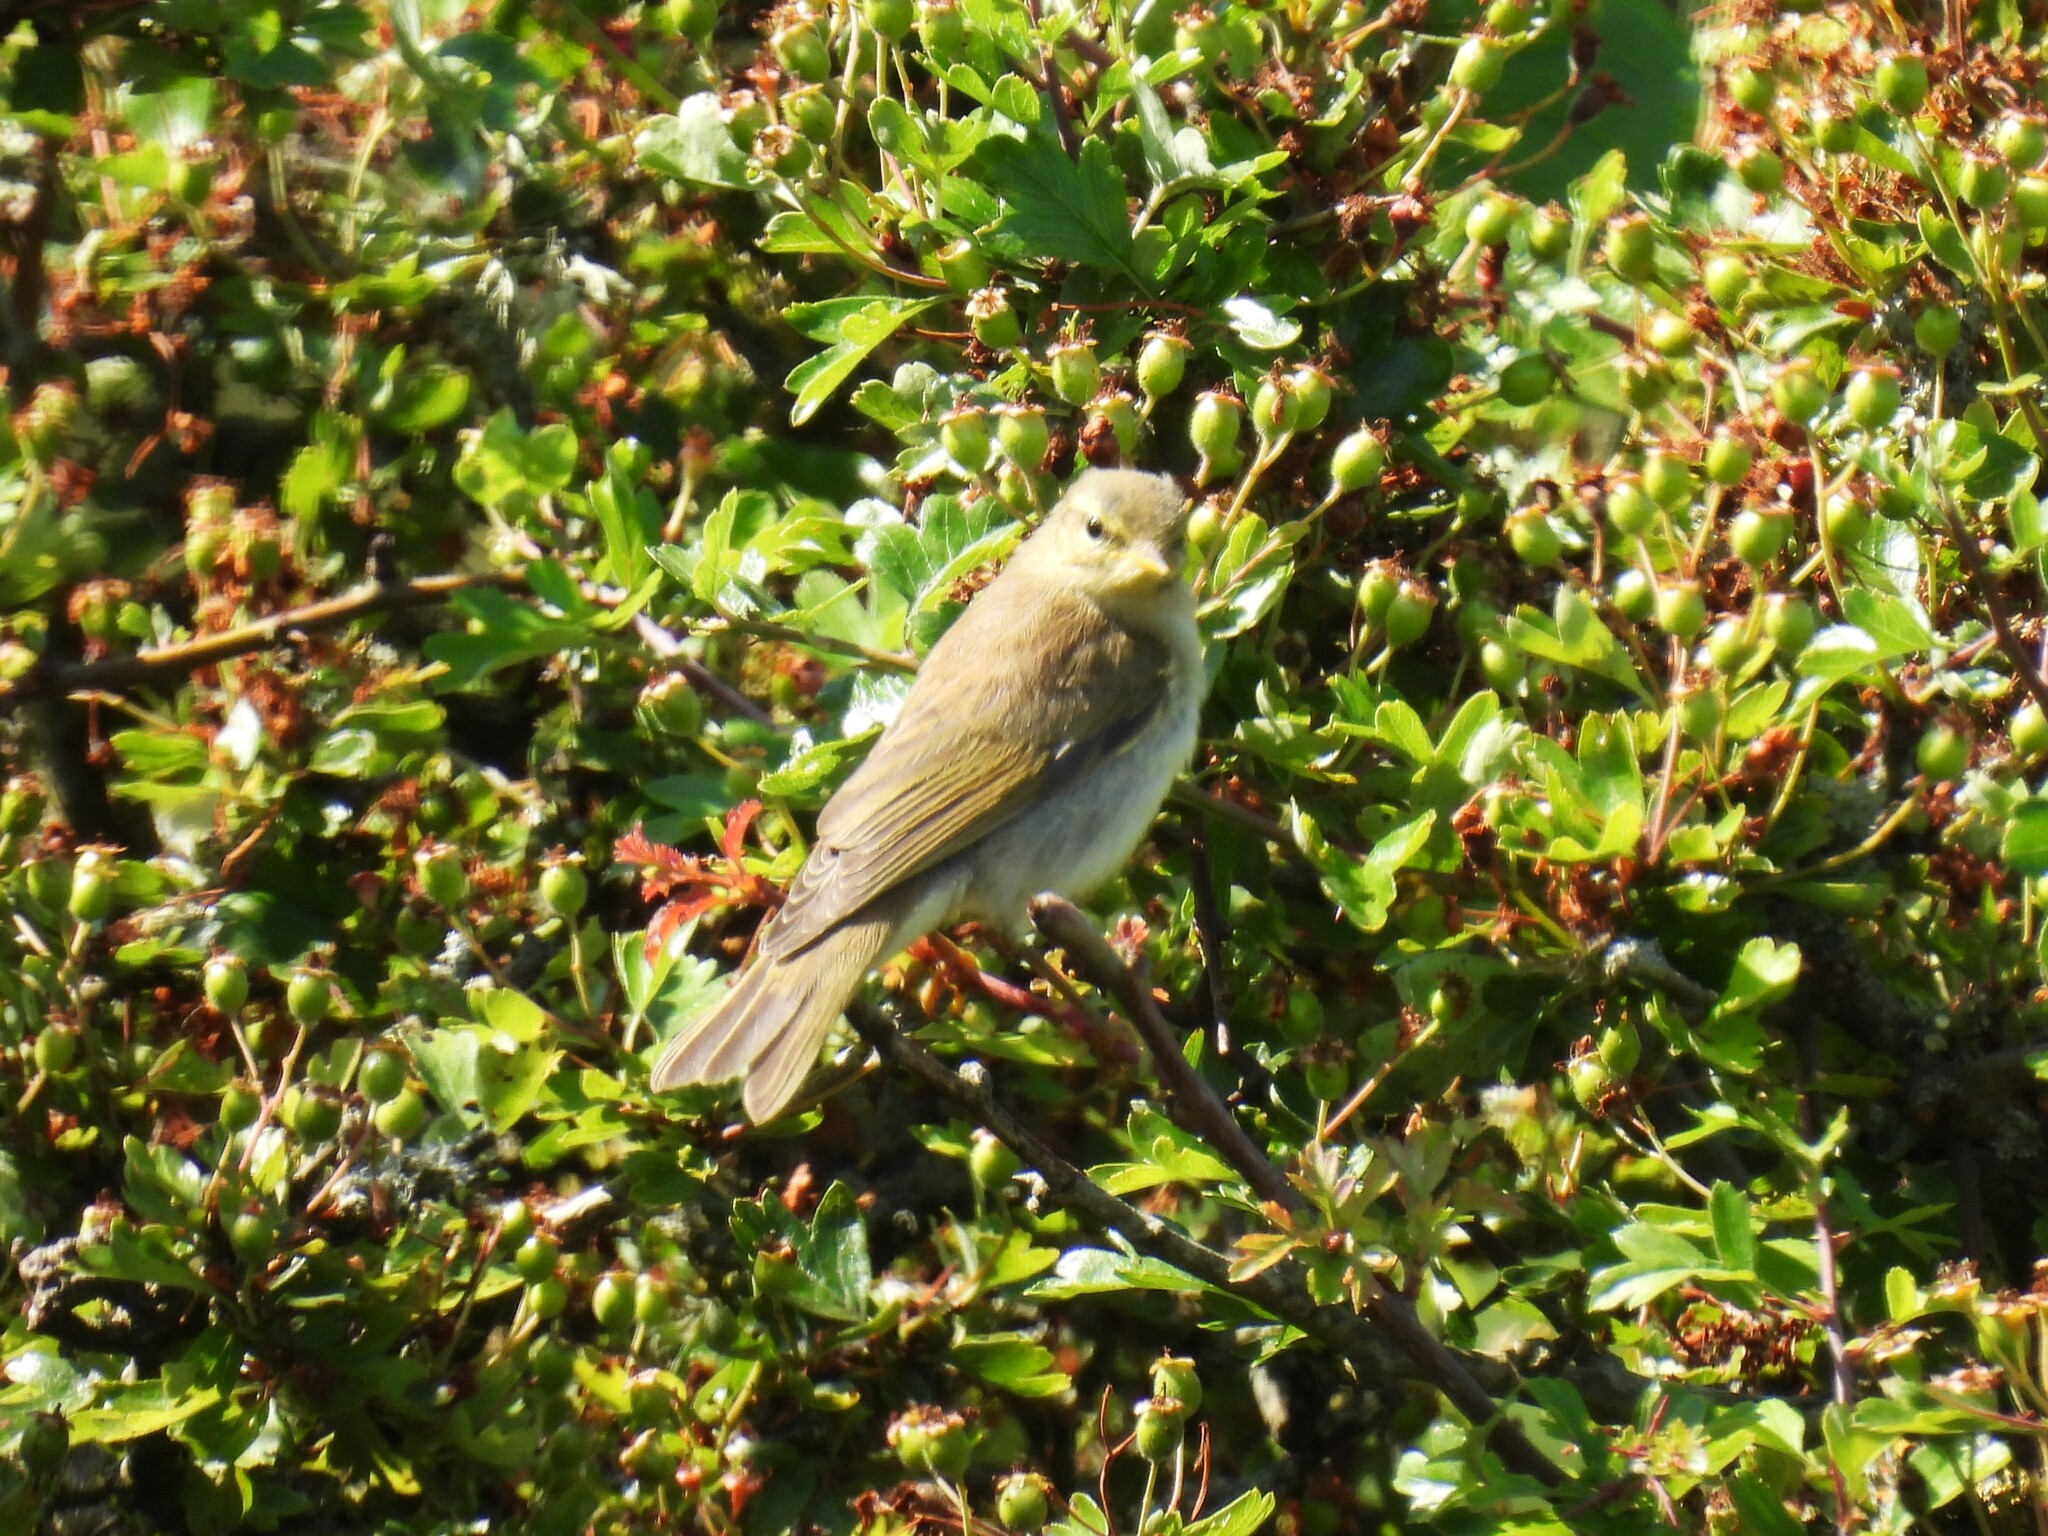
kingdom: Animalia
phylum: Chordata
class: Aves
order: Passeriformes
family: Phylloscopidae
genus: Phylloscopus
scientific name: Phylloscopus trochilus
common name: Willow warbler
